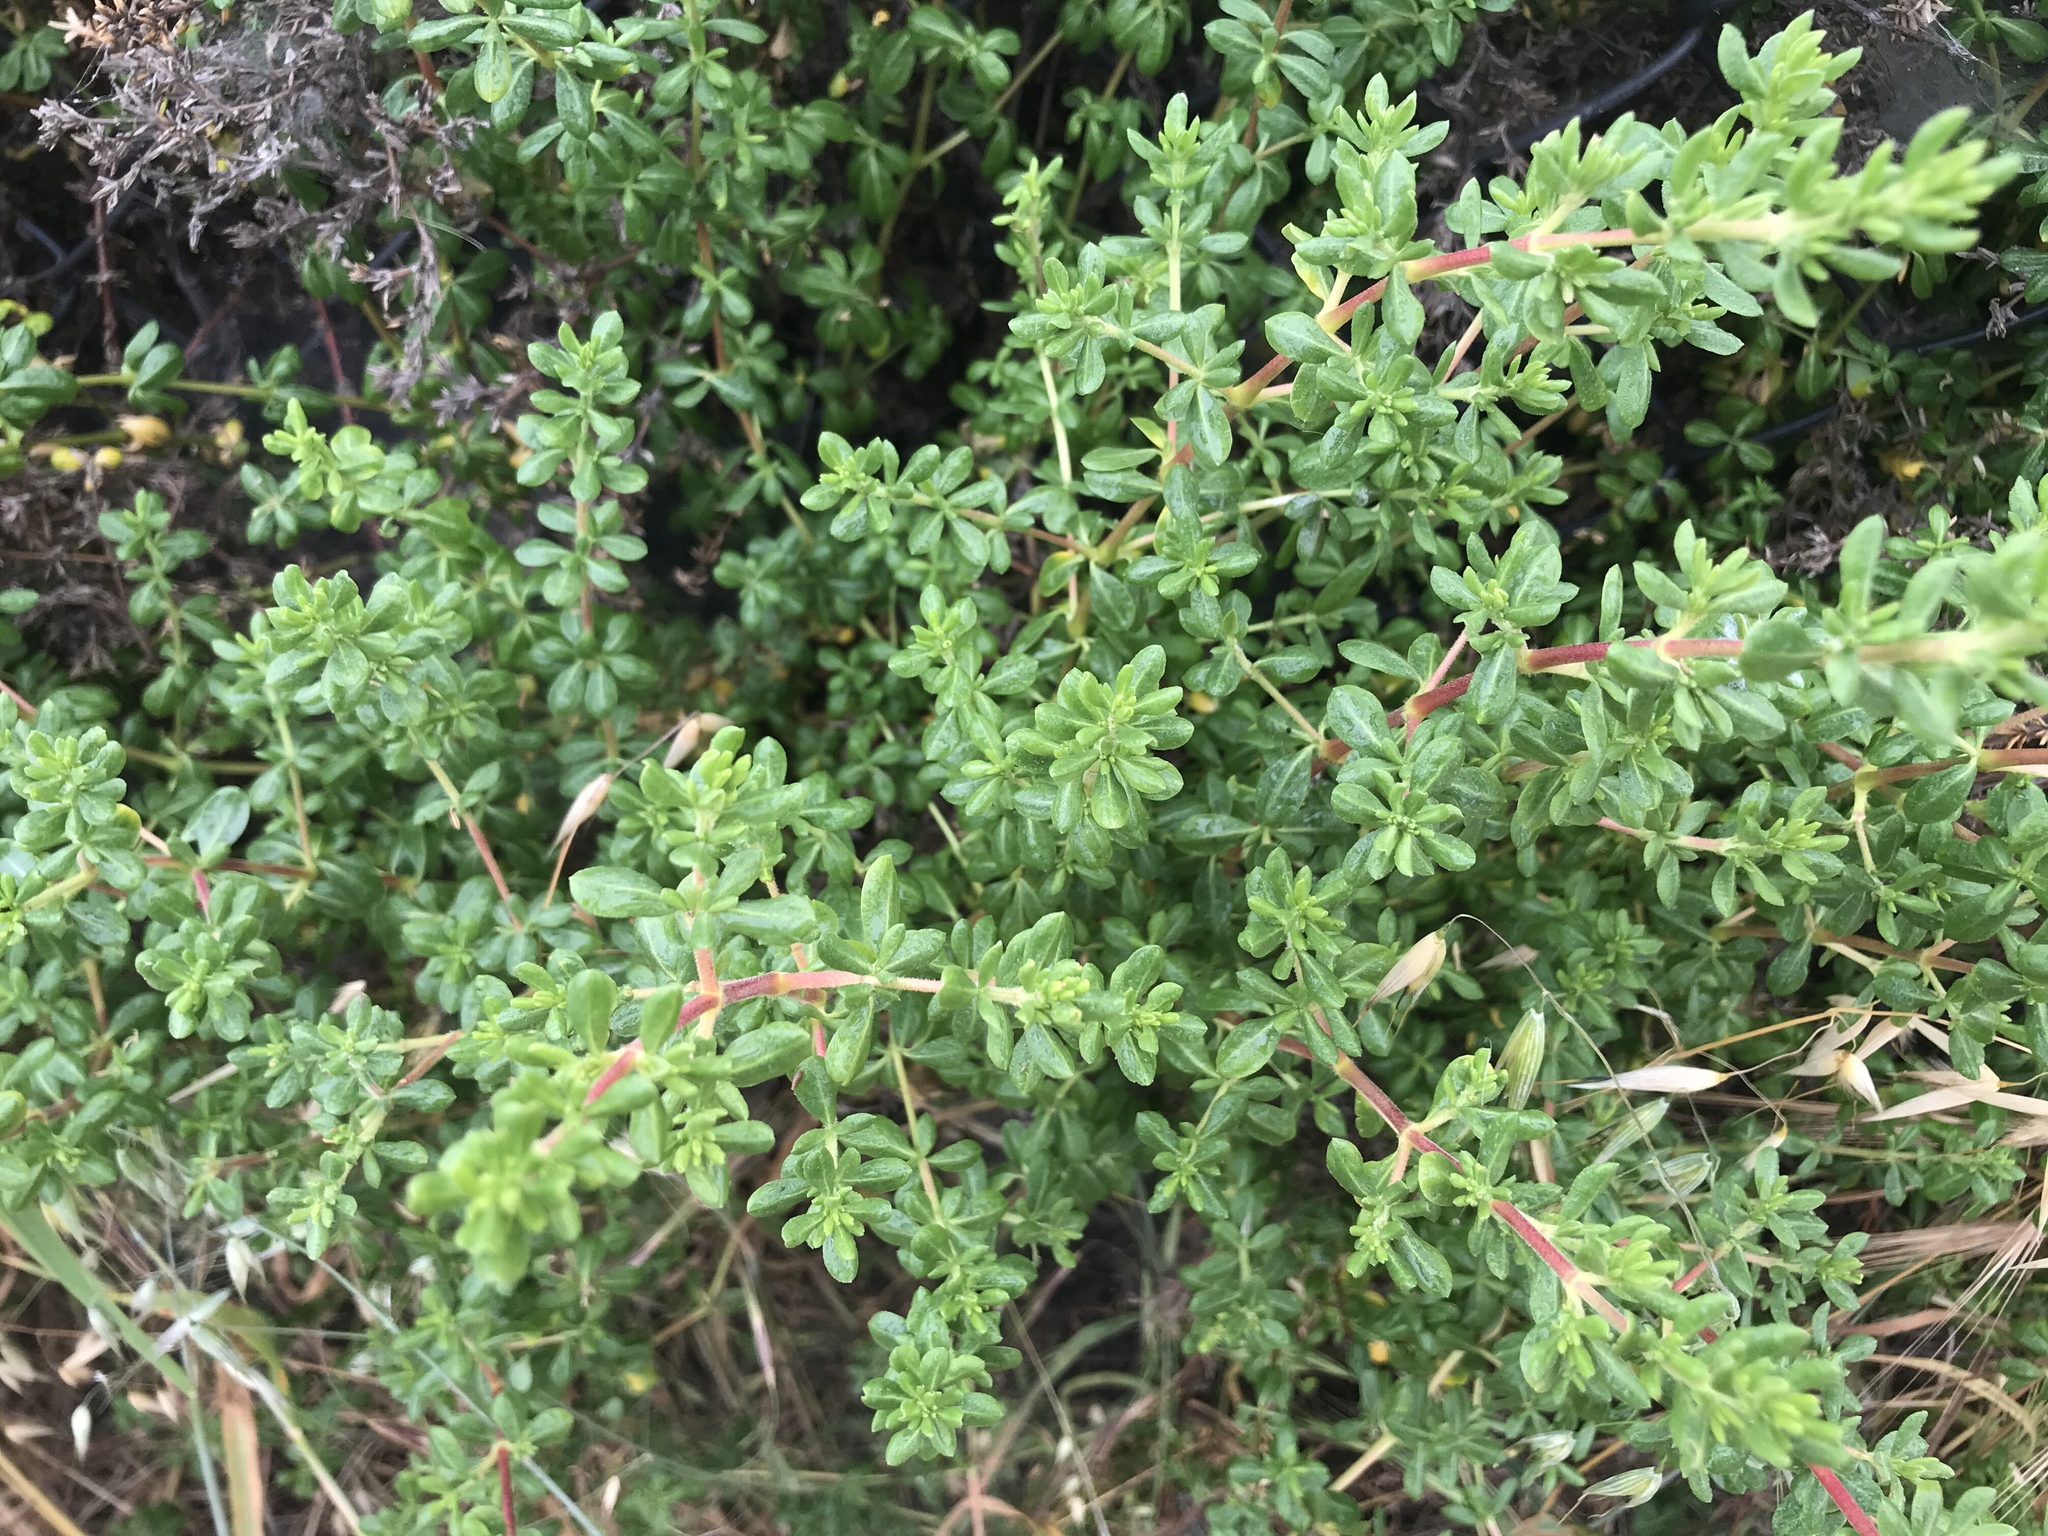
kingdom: Plantae
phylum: Tracheophyta
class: Magnoliopsida
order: Caryophyllales
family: Frankeniaceae
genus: Frankenia
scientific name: Frankenia salina
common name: Alkali seaheath
